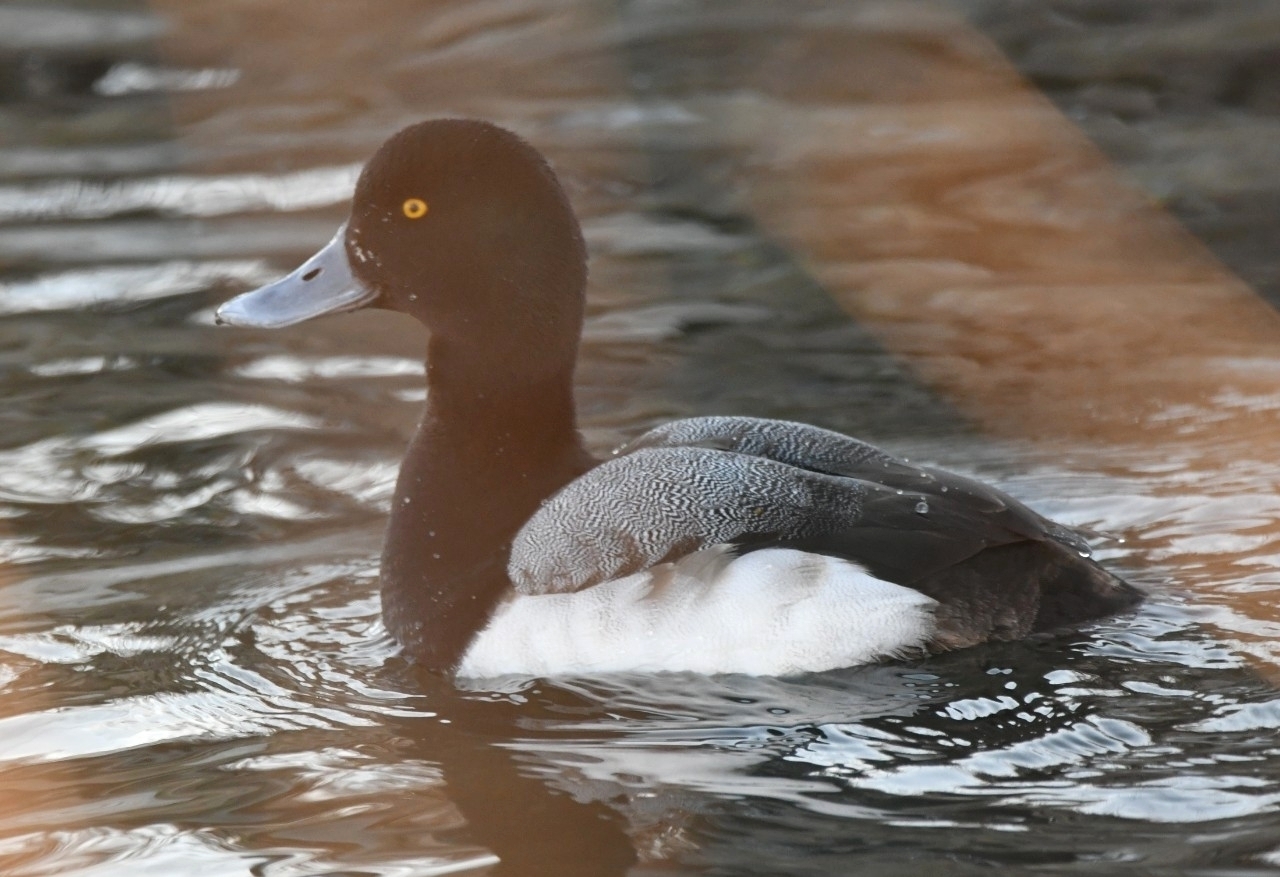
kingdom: Animalia
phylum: Chordata
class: Aves
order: Anseriformes
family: Anatidae
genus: Aythya
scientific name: Aythya marila
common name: Greater scaup
